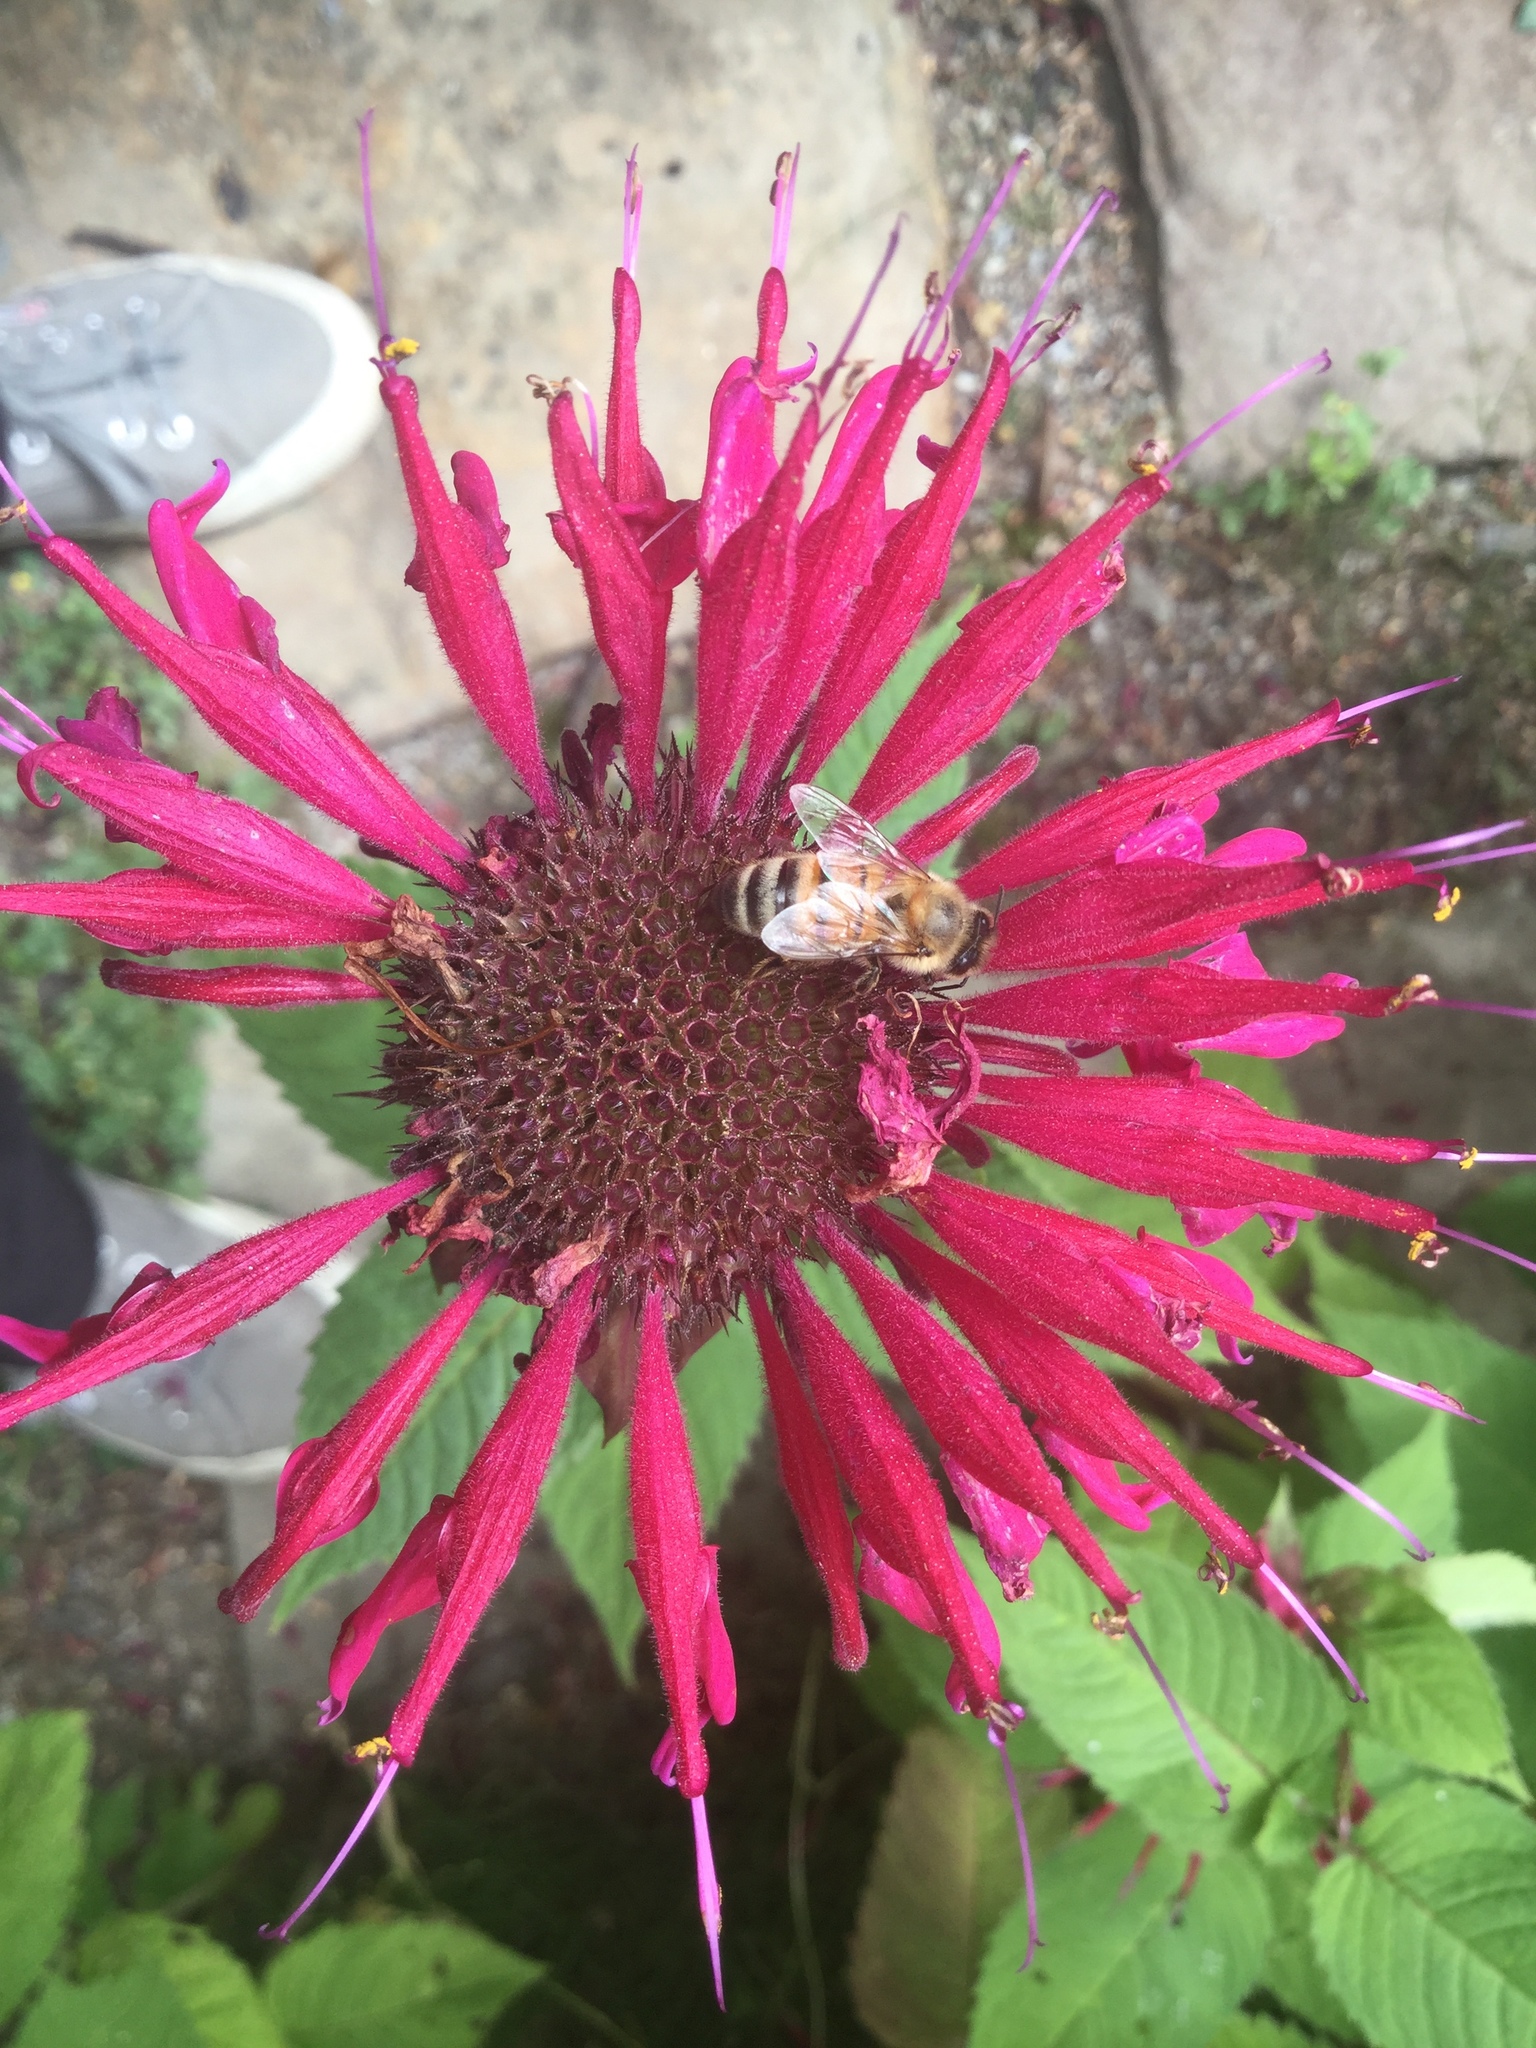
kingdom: Animalia
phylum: Arthropoda
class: Insecta
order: Hymenoptera
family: Apidae
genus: Apis
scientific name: Apis mellifera
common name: Honey bee
